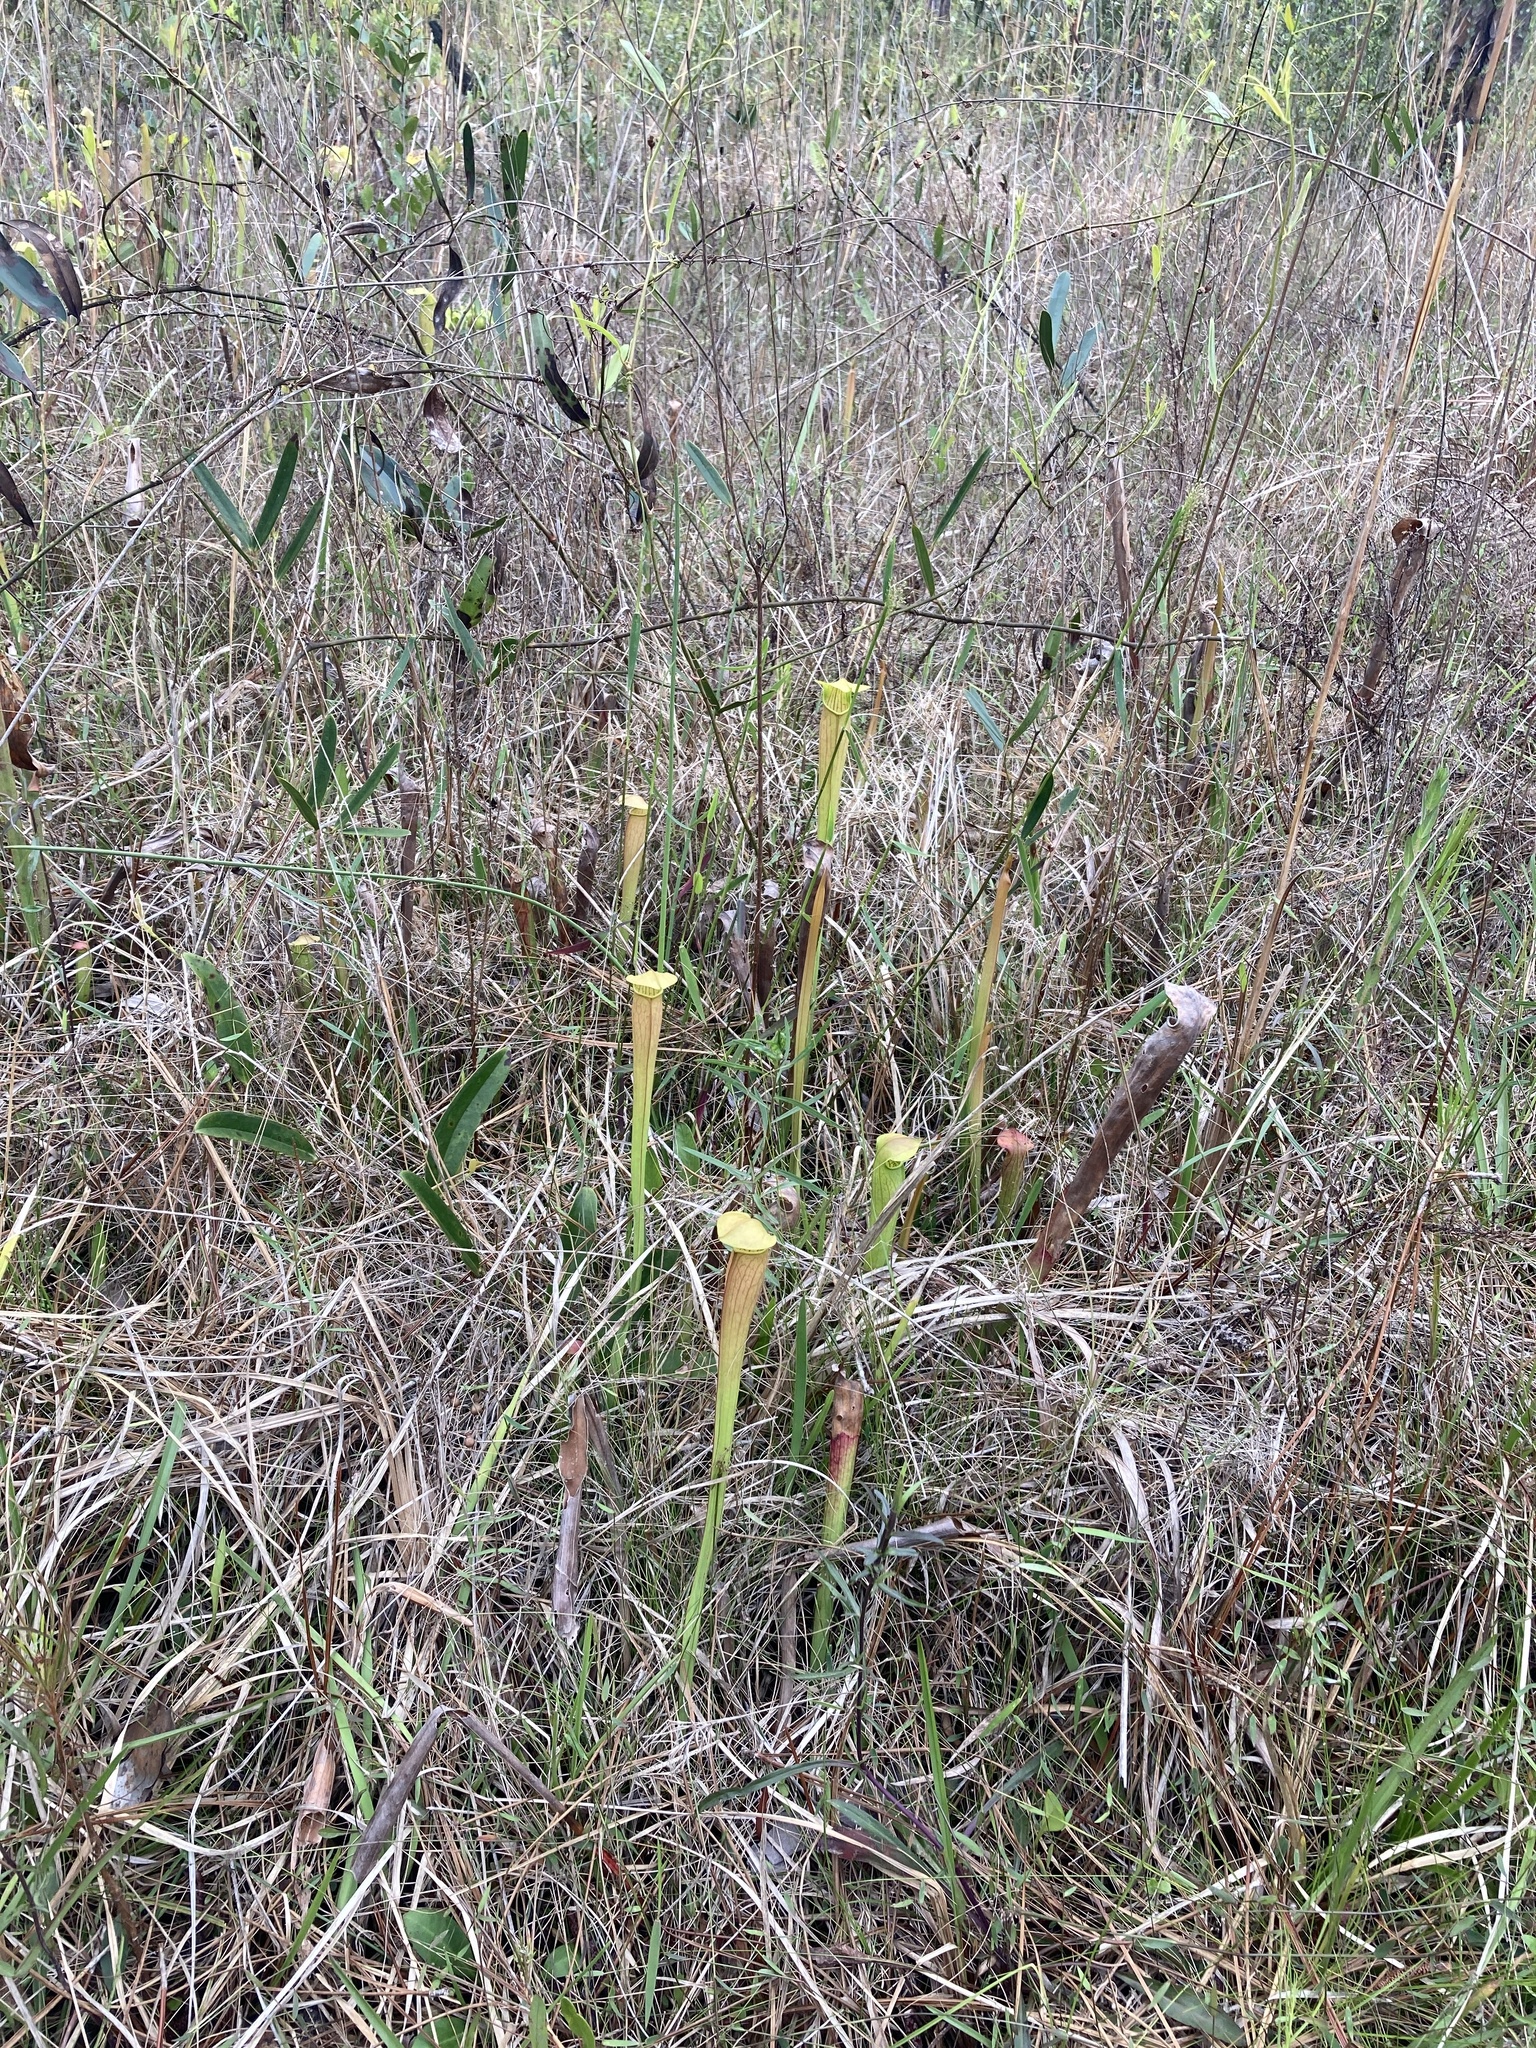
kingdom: Plantae
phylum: Tracheophyta
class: Magnoliopsida
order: Ericales
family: Sarraceniaceae
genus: Sarracenia
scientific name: Sarracenia alata
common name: Yellow trumpets
